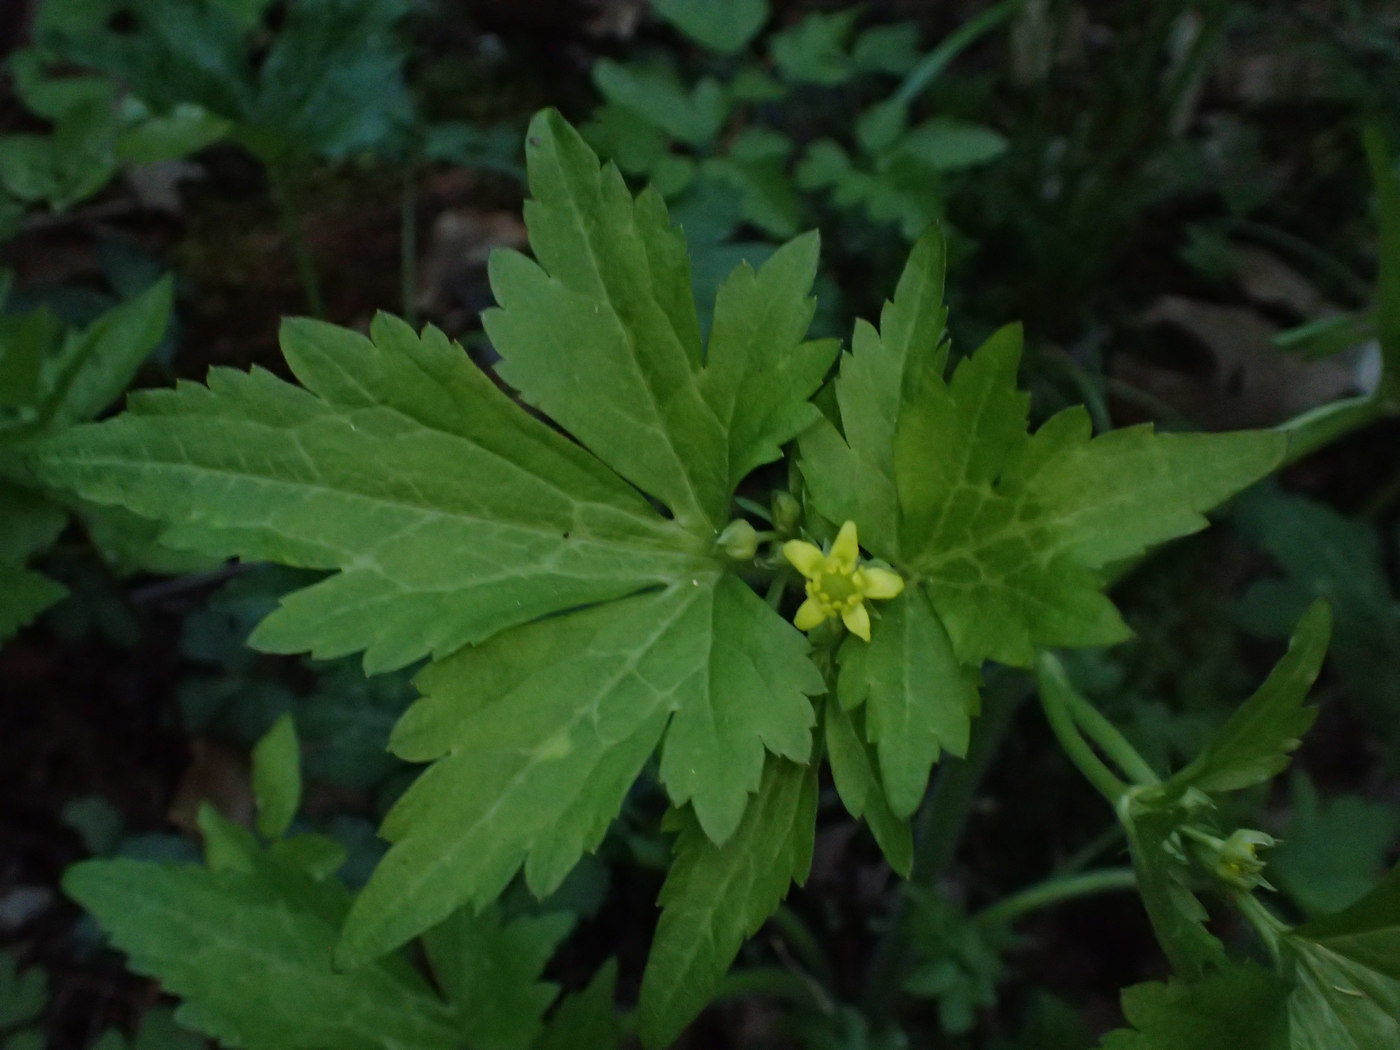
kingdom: Plantae
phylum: Tracheophyta
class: Magnoliopsida
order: Ranunculales
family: Ranunculaceae
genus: Ranunculus
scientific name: Ranunculus recurvatus
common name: Blisterwort
